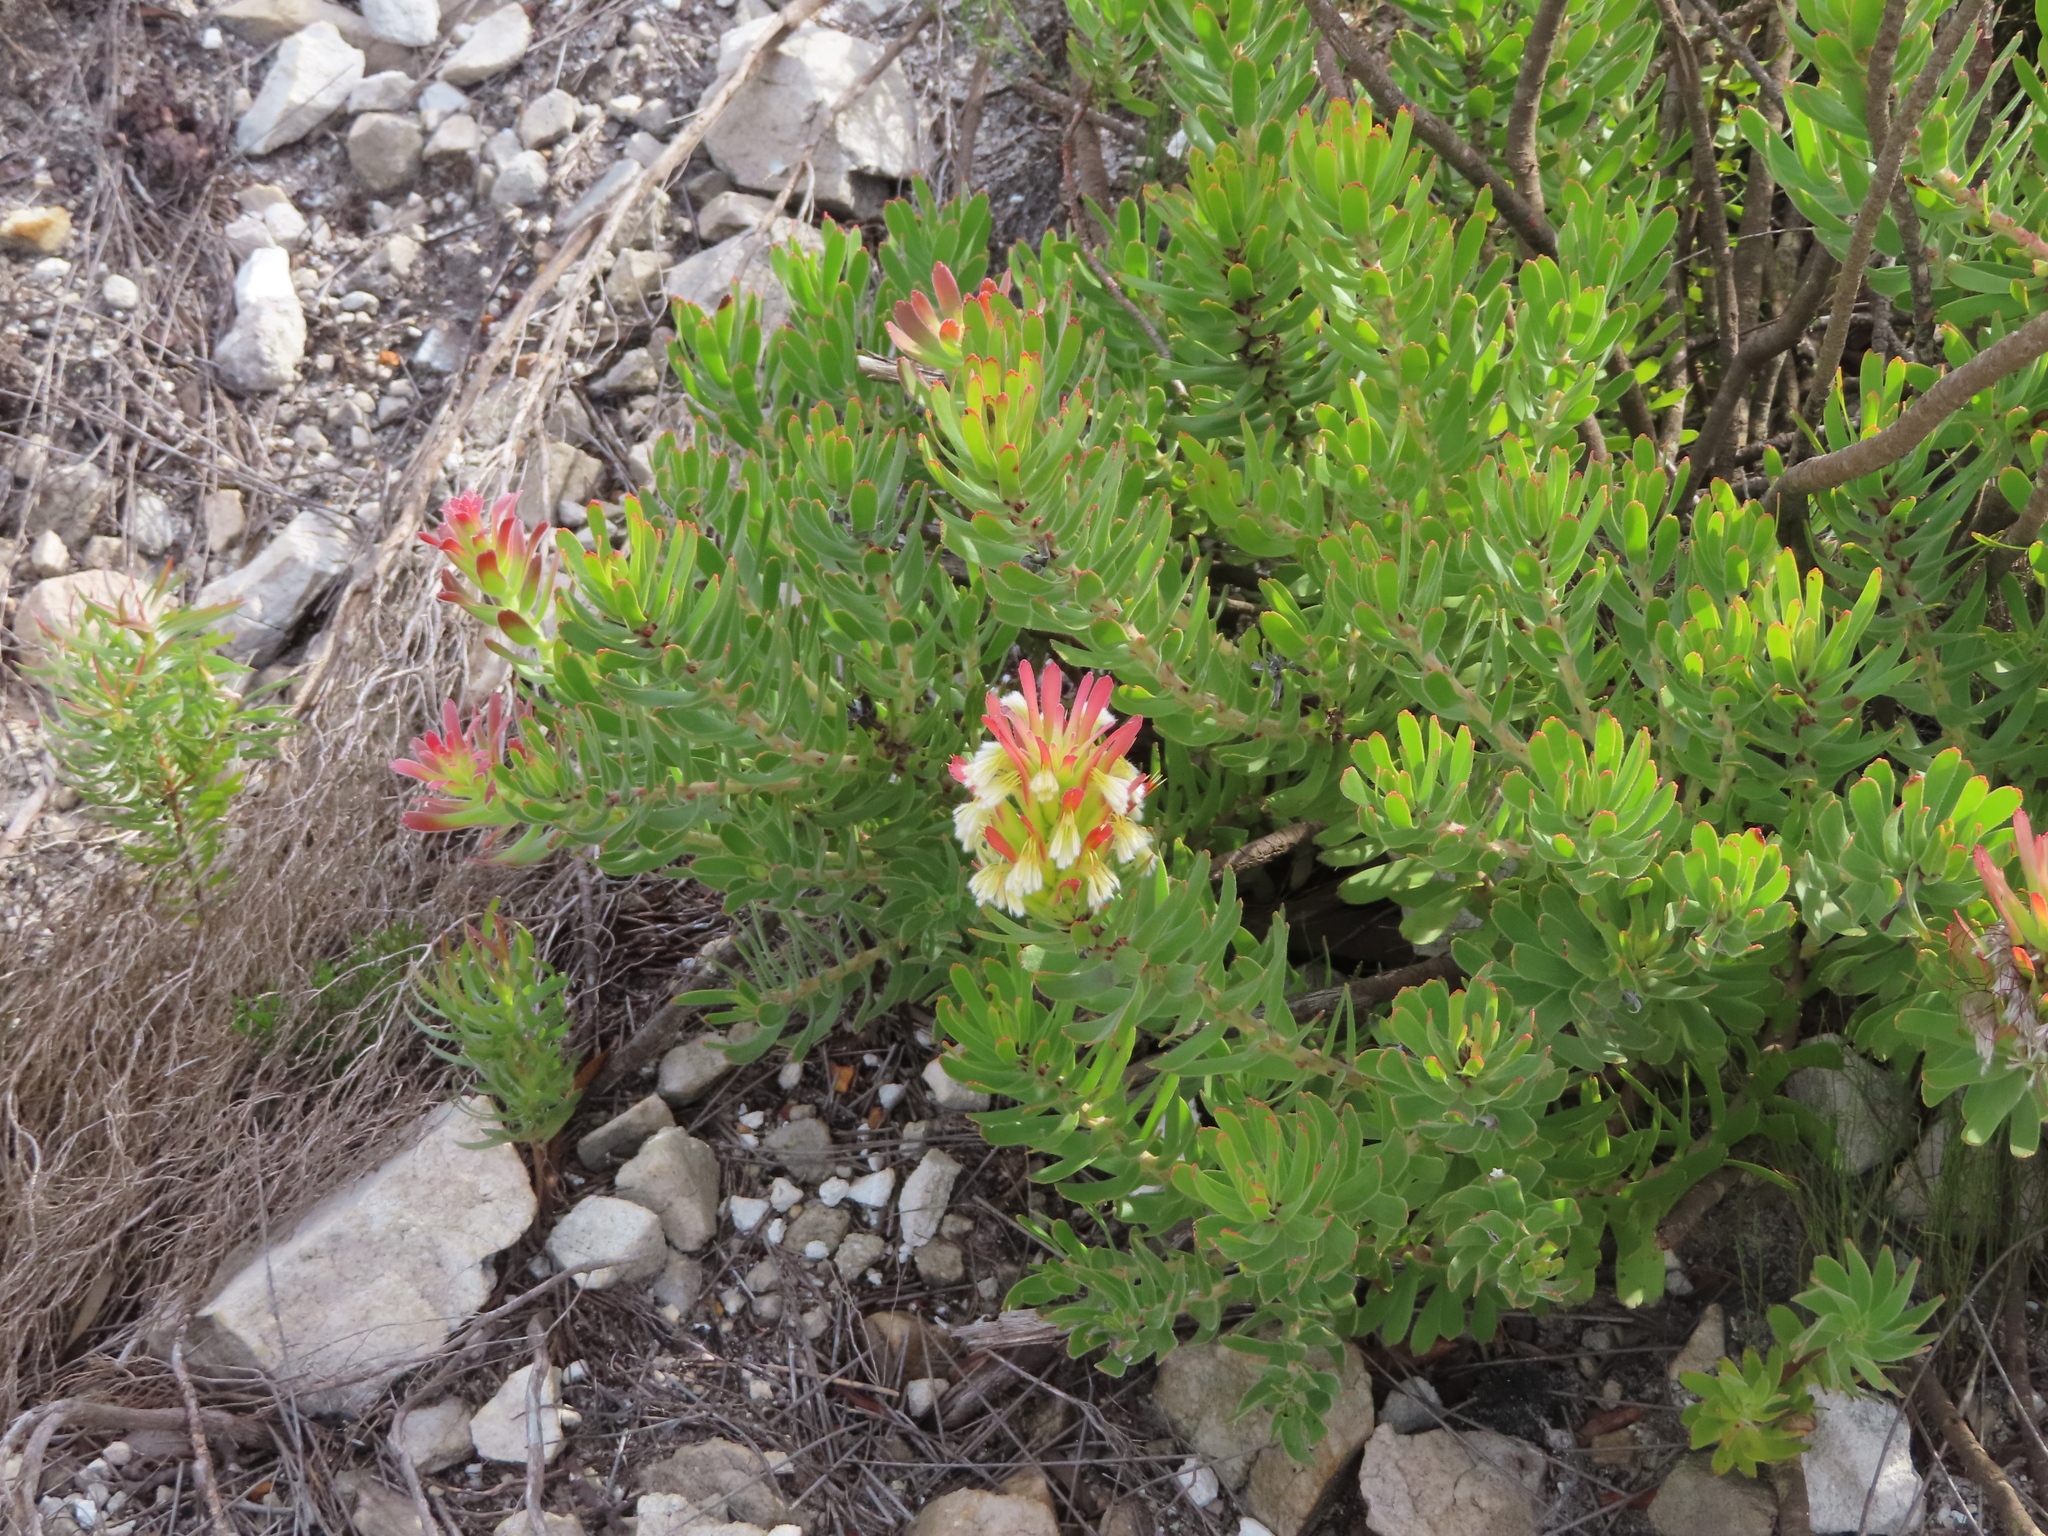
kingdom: Plantae
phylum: Tracheophyta
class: Magnoliopsida
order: Proteales
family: Proteaceae
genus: Mimetes
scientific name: Mimetes cucullatus
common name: Common pagoda
